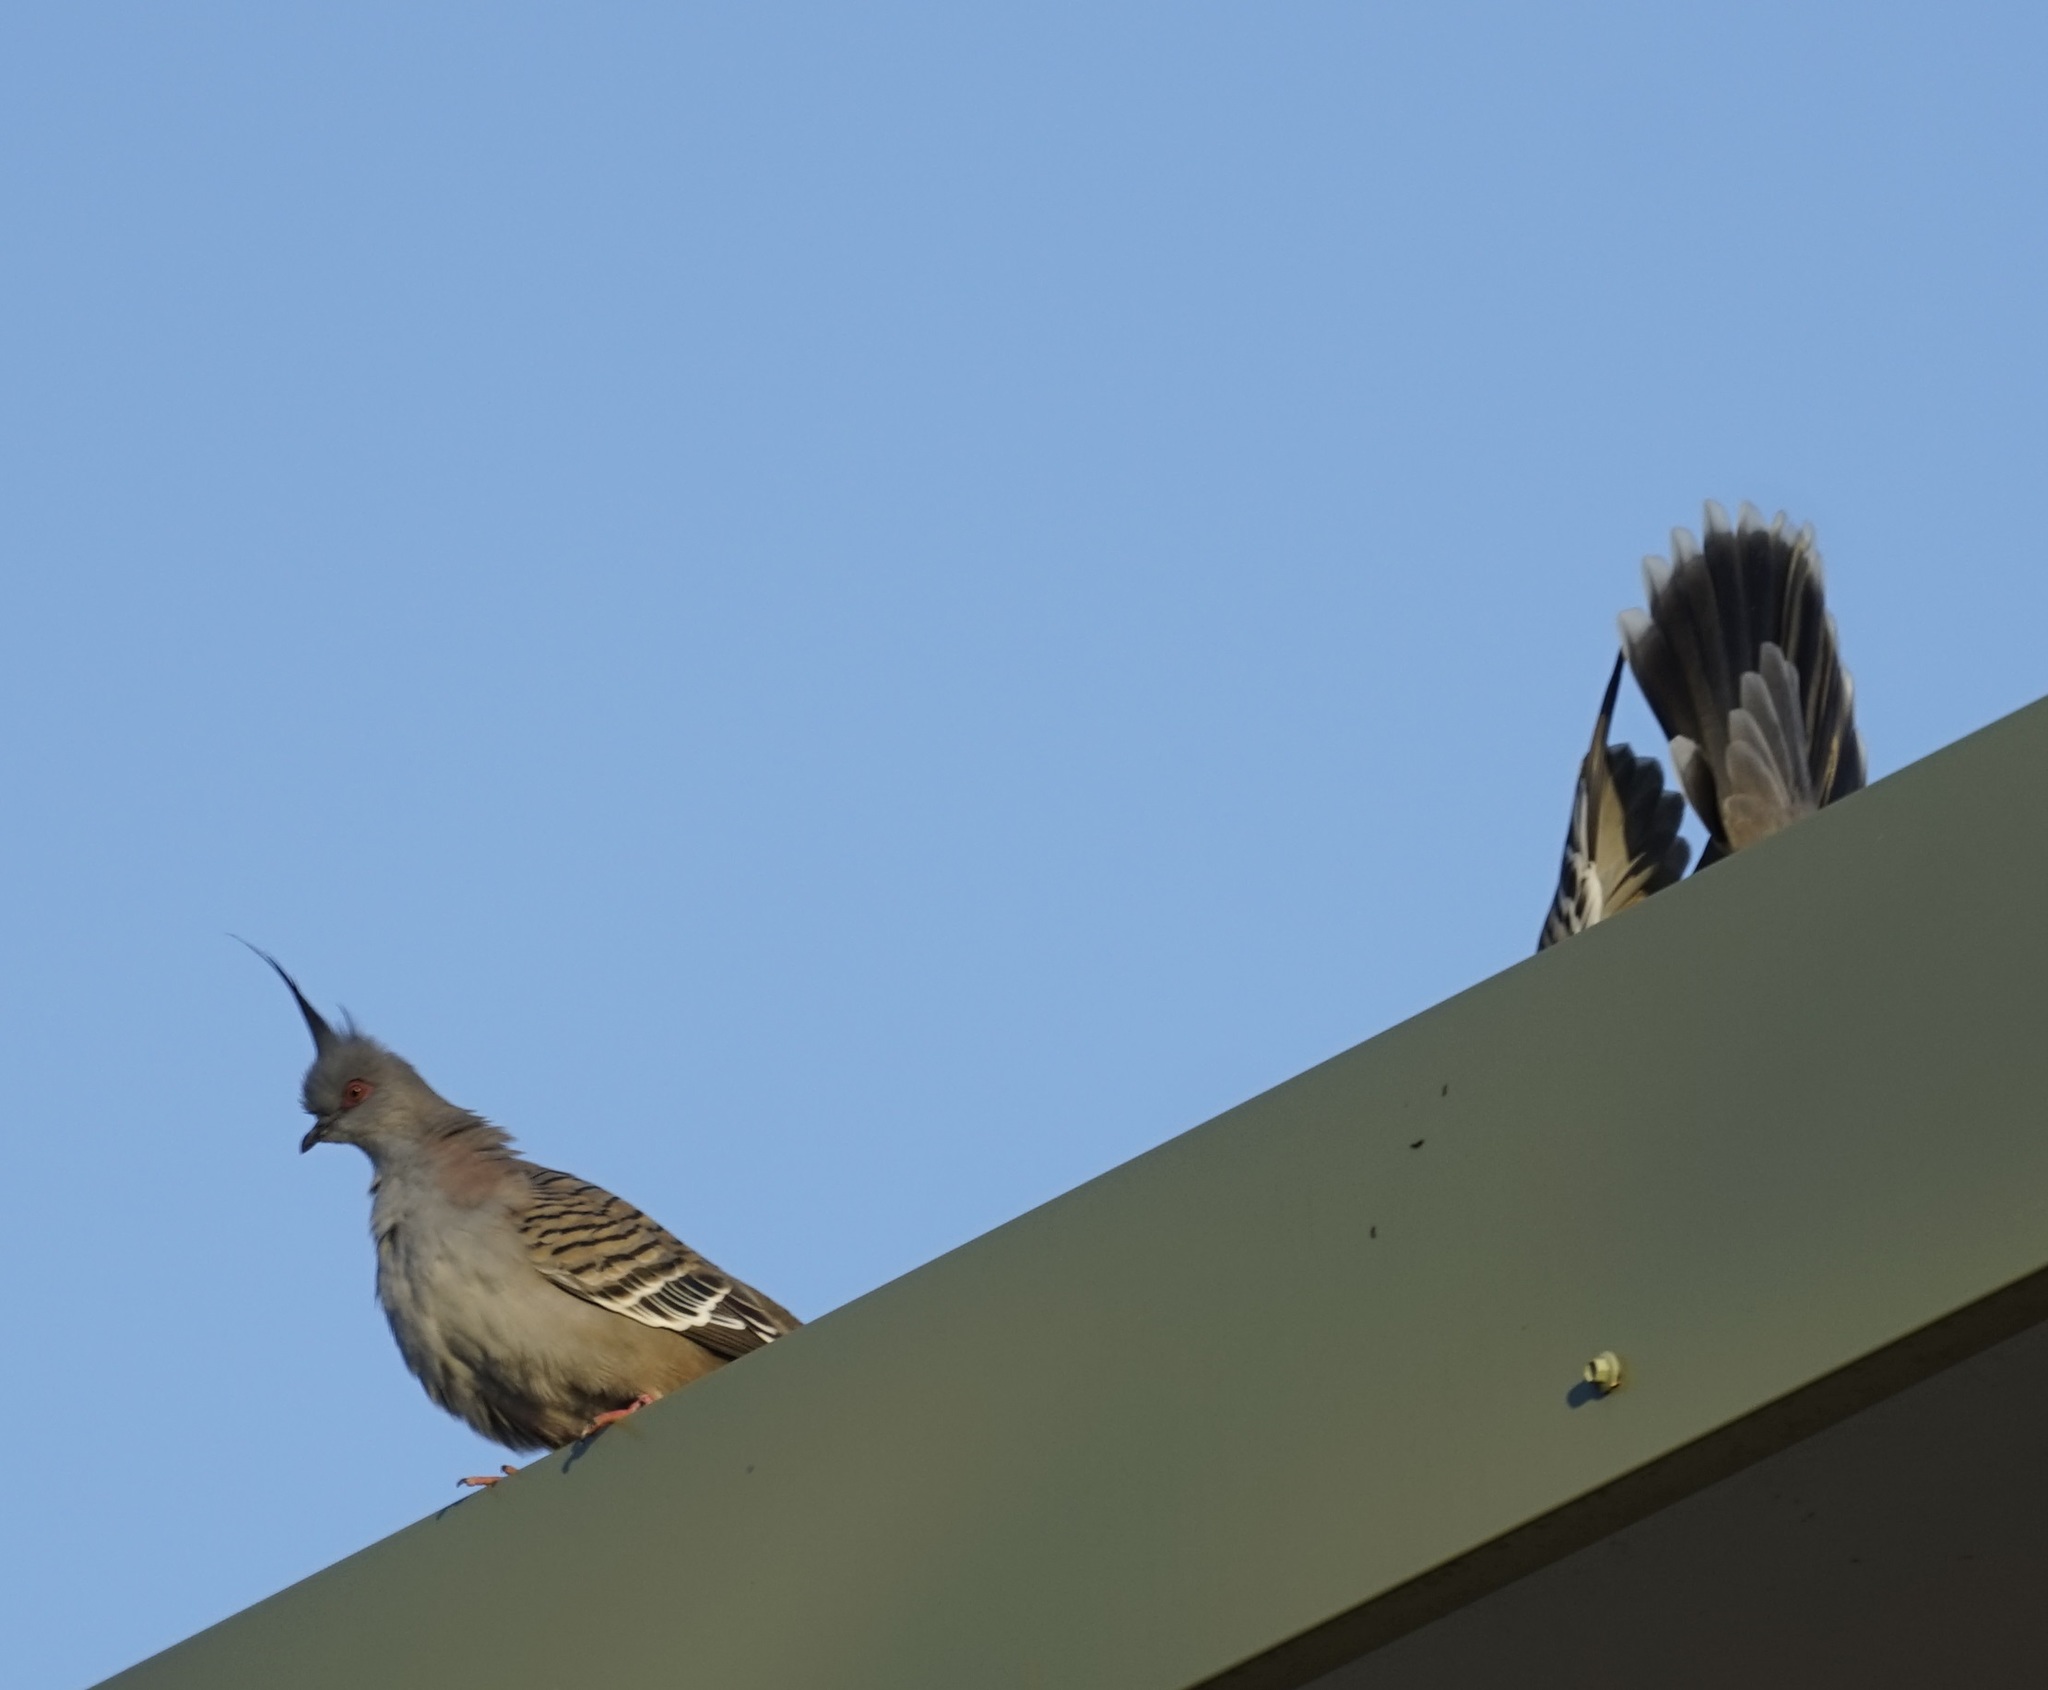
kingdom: Animalia
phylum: Chordata
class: Aves
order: Columbiformes
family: Columbidae
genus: Ocyphaps
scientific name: Ocyphaps lophotes
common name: Crested pigeon
